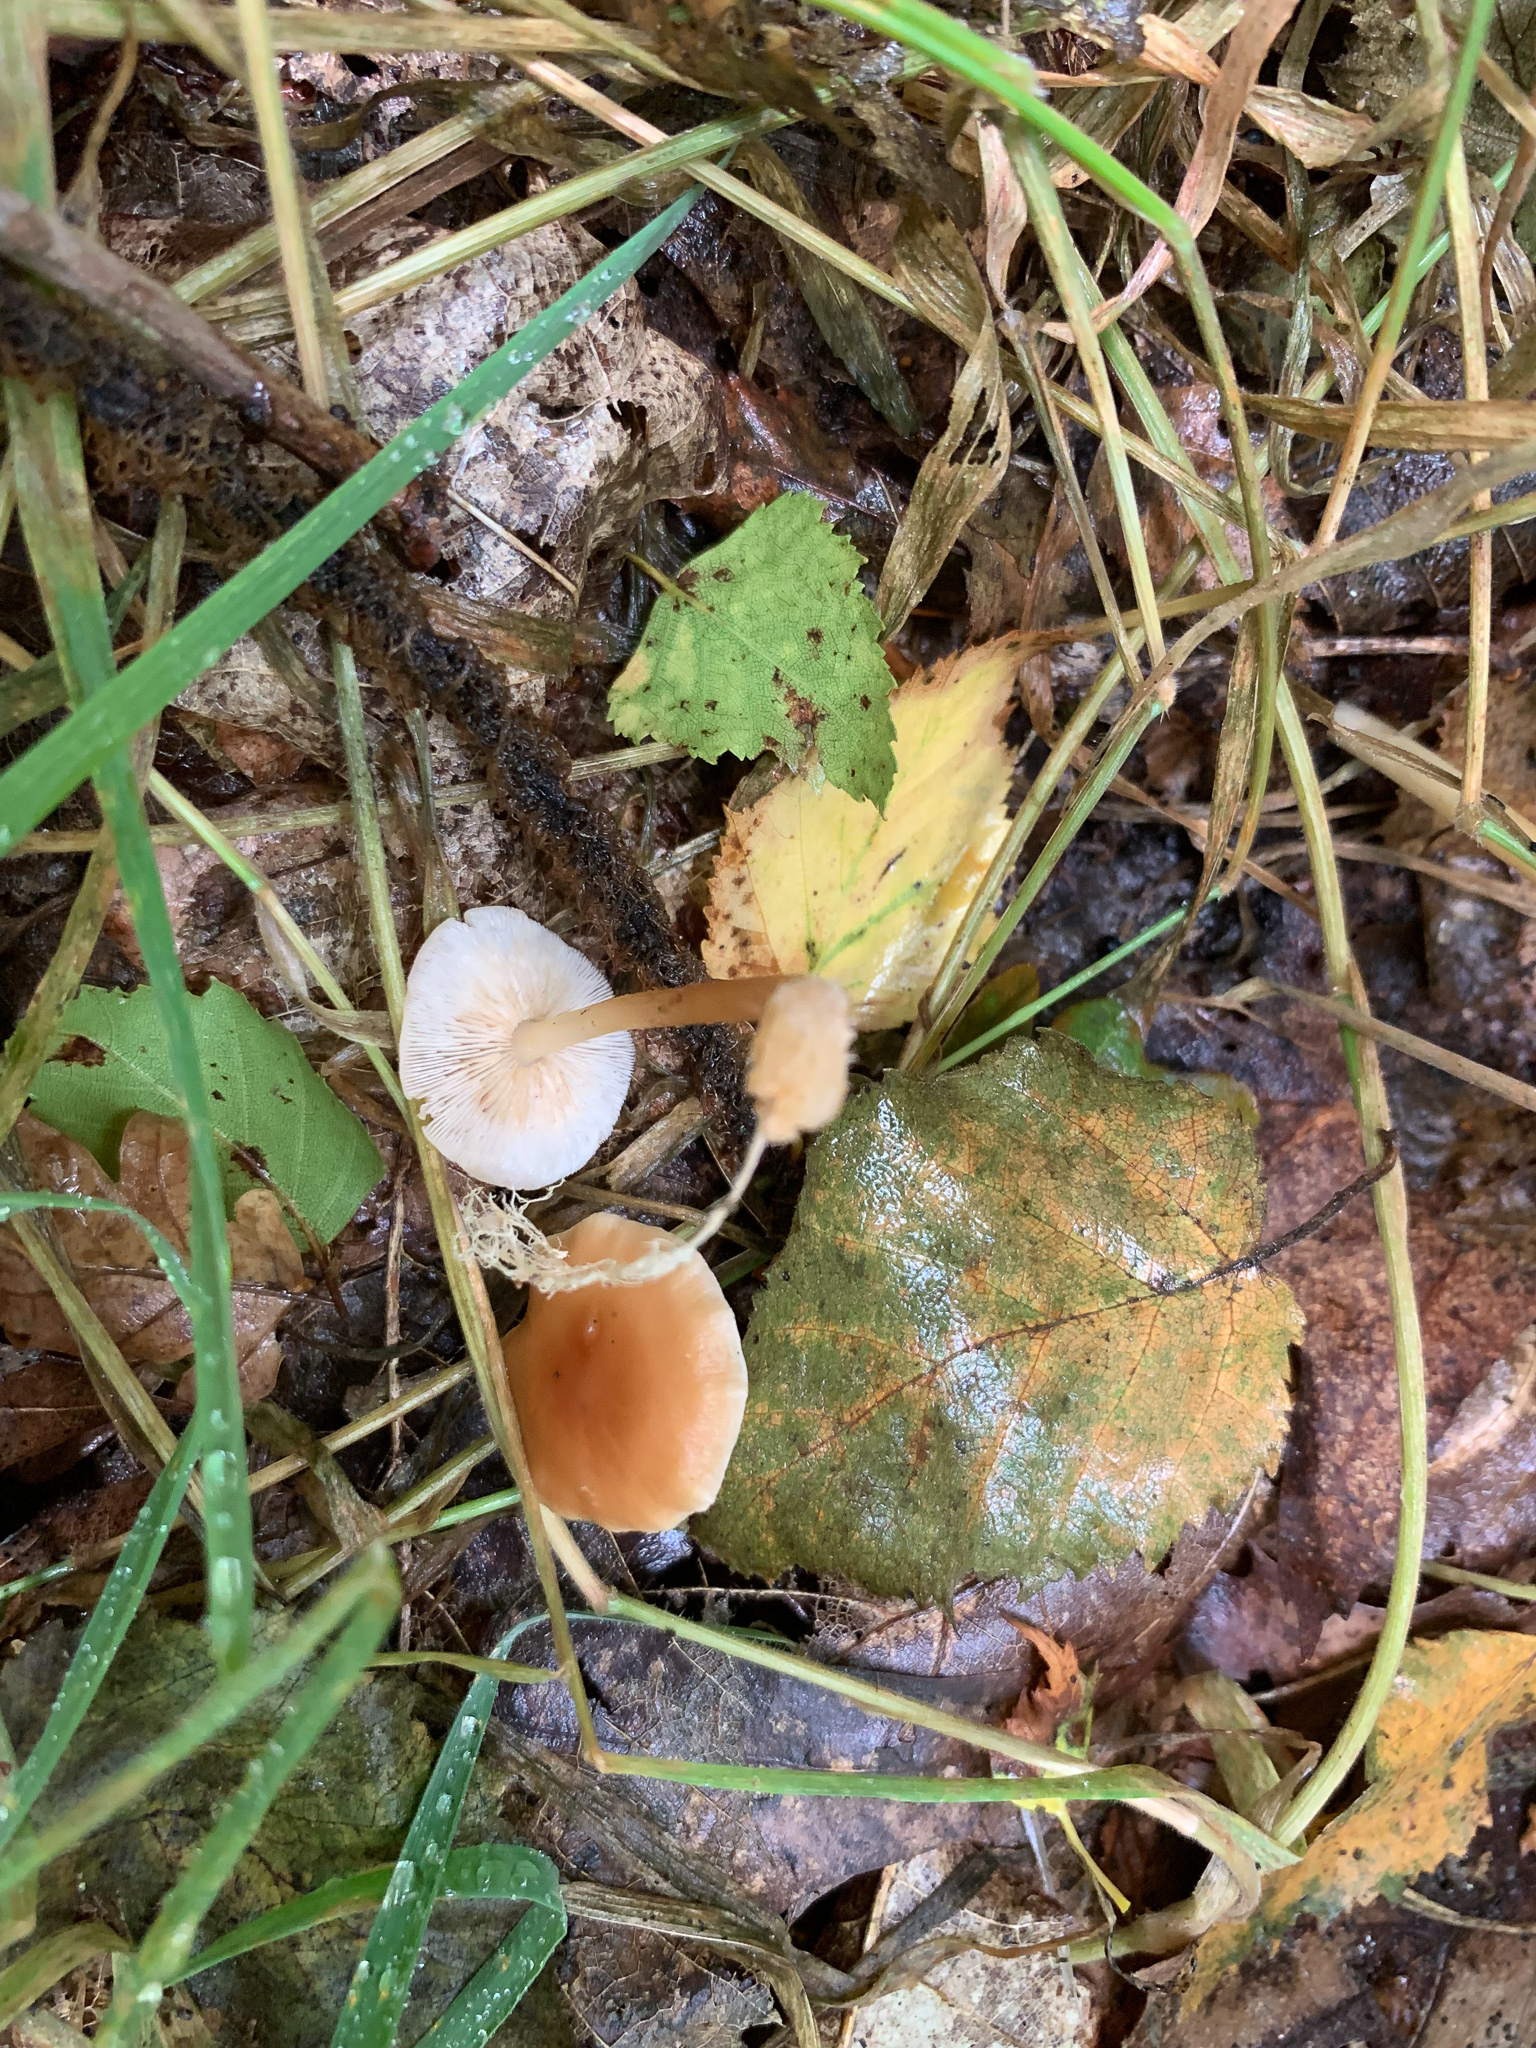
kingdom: Fungi
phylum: Basidiomycota
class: Agaricomycetes
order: Agaricales
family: Omphalotaceae
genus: Gymnopus
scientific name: Gymnopus dryophilus
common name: Penny top
